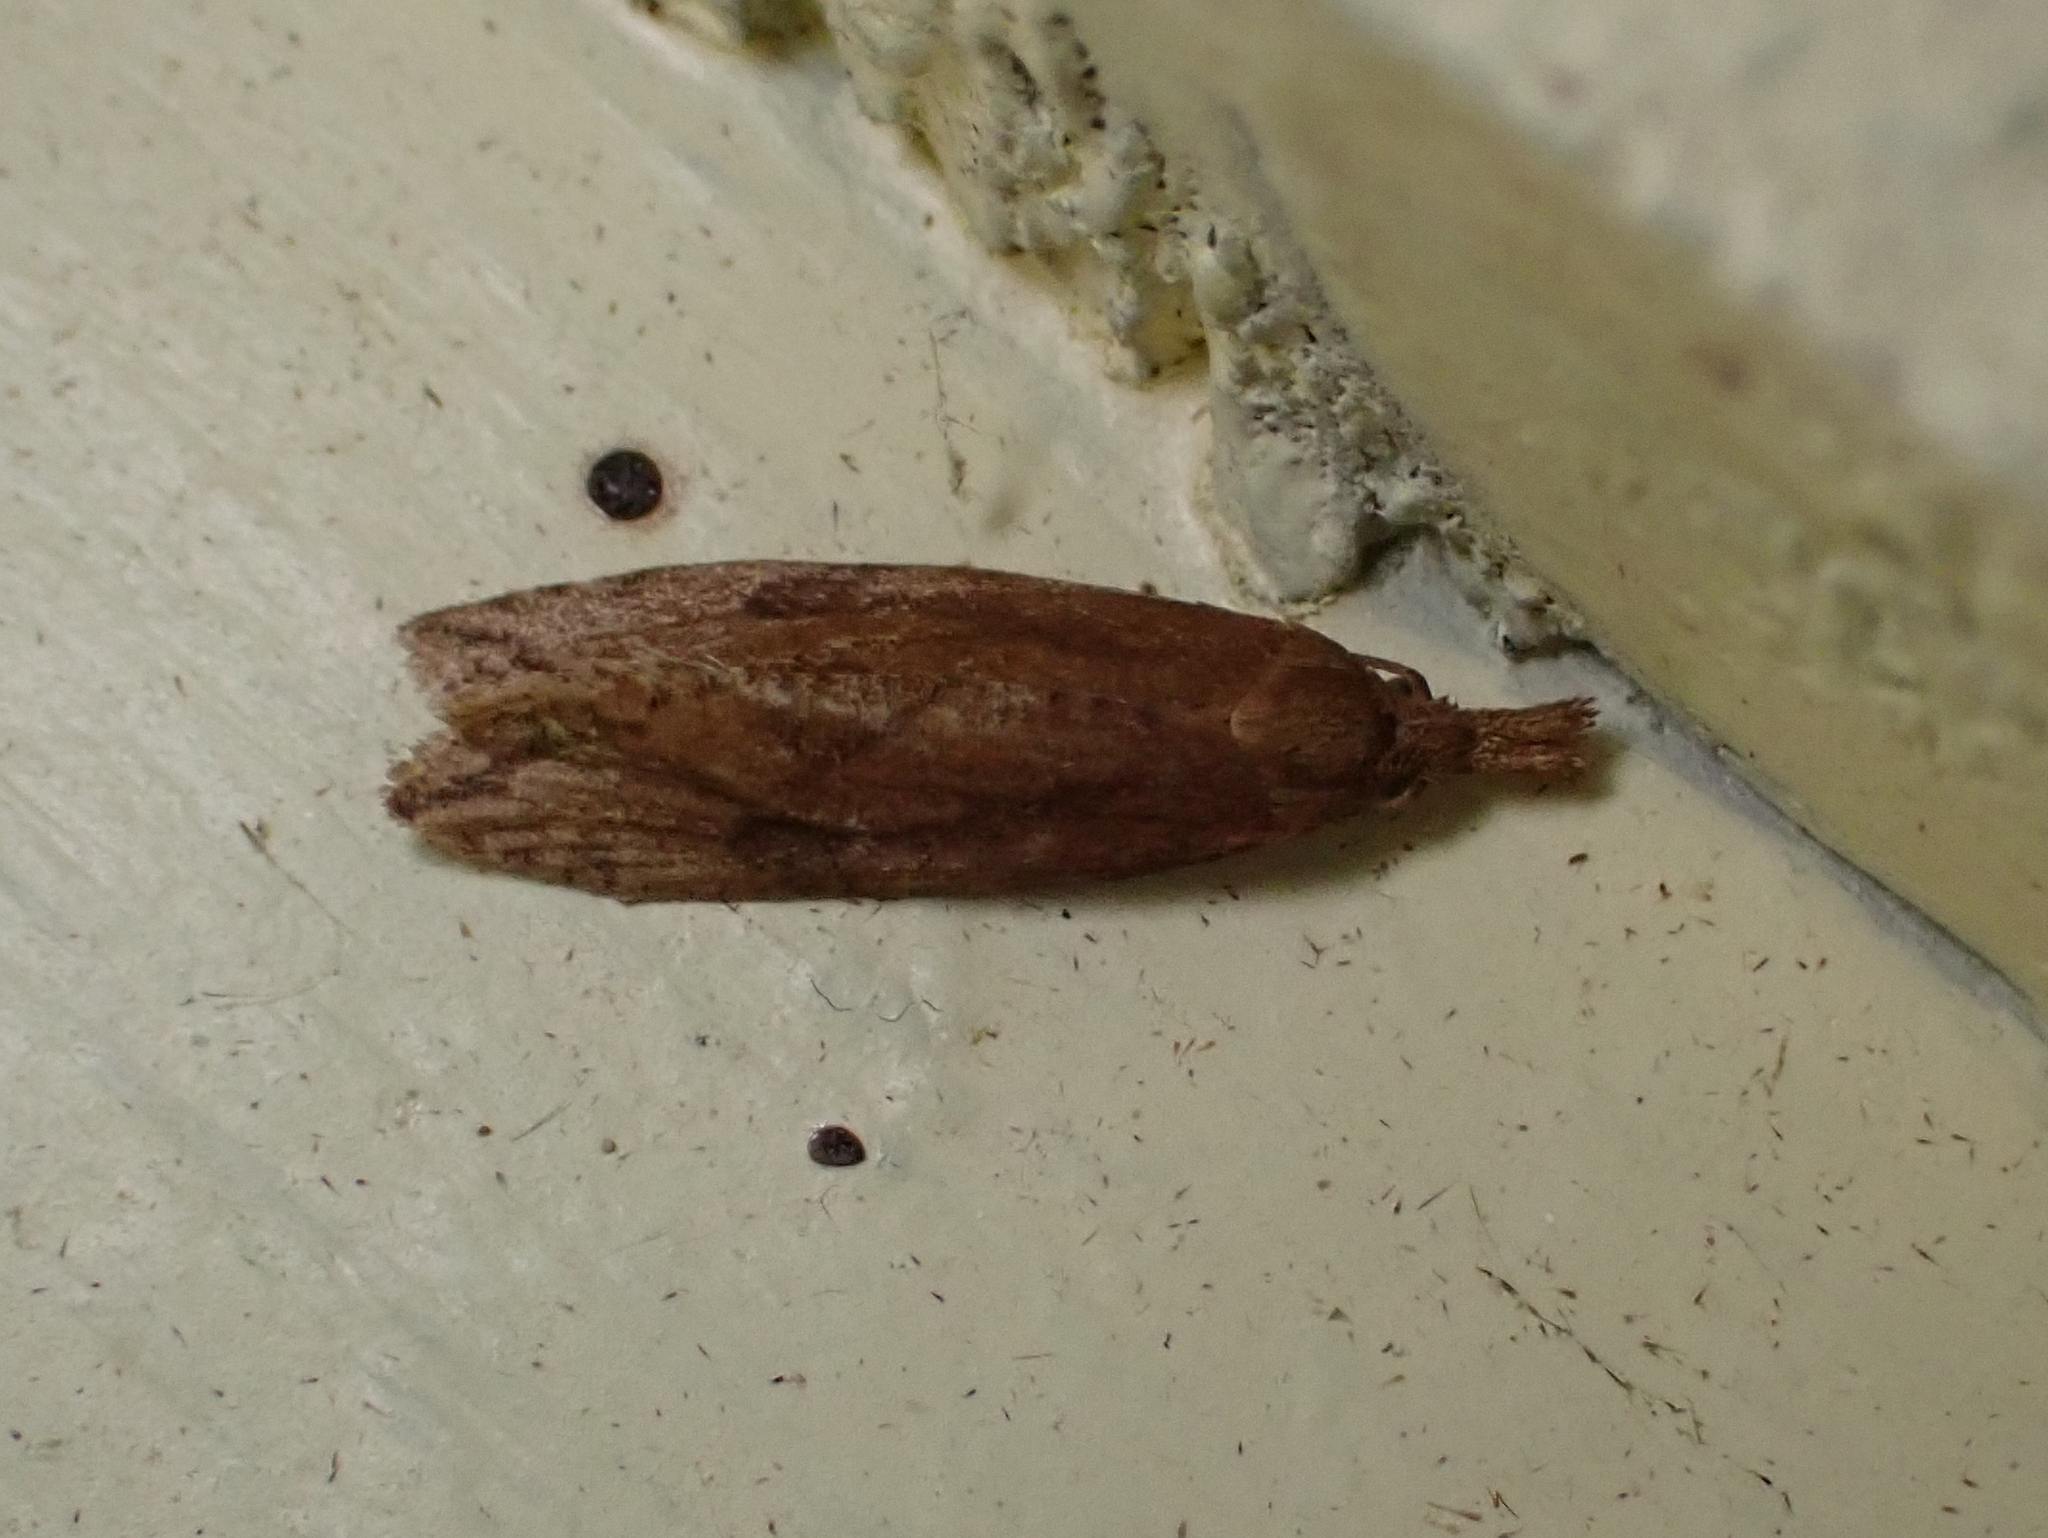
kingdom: Animalia
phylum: Arthropoda
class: Insecta
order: Lepidoptera
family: Tortricidae
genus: Aethes
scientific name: Aethes biscana
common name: Reddish aethes
